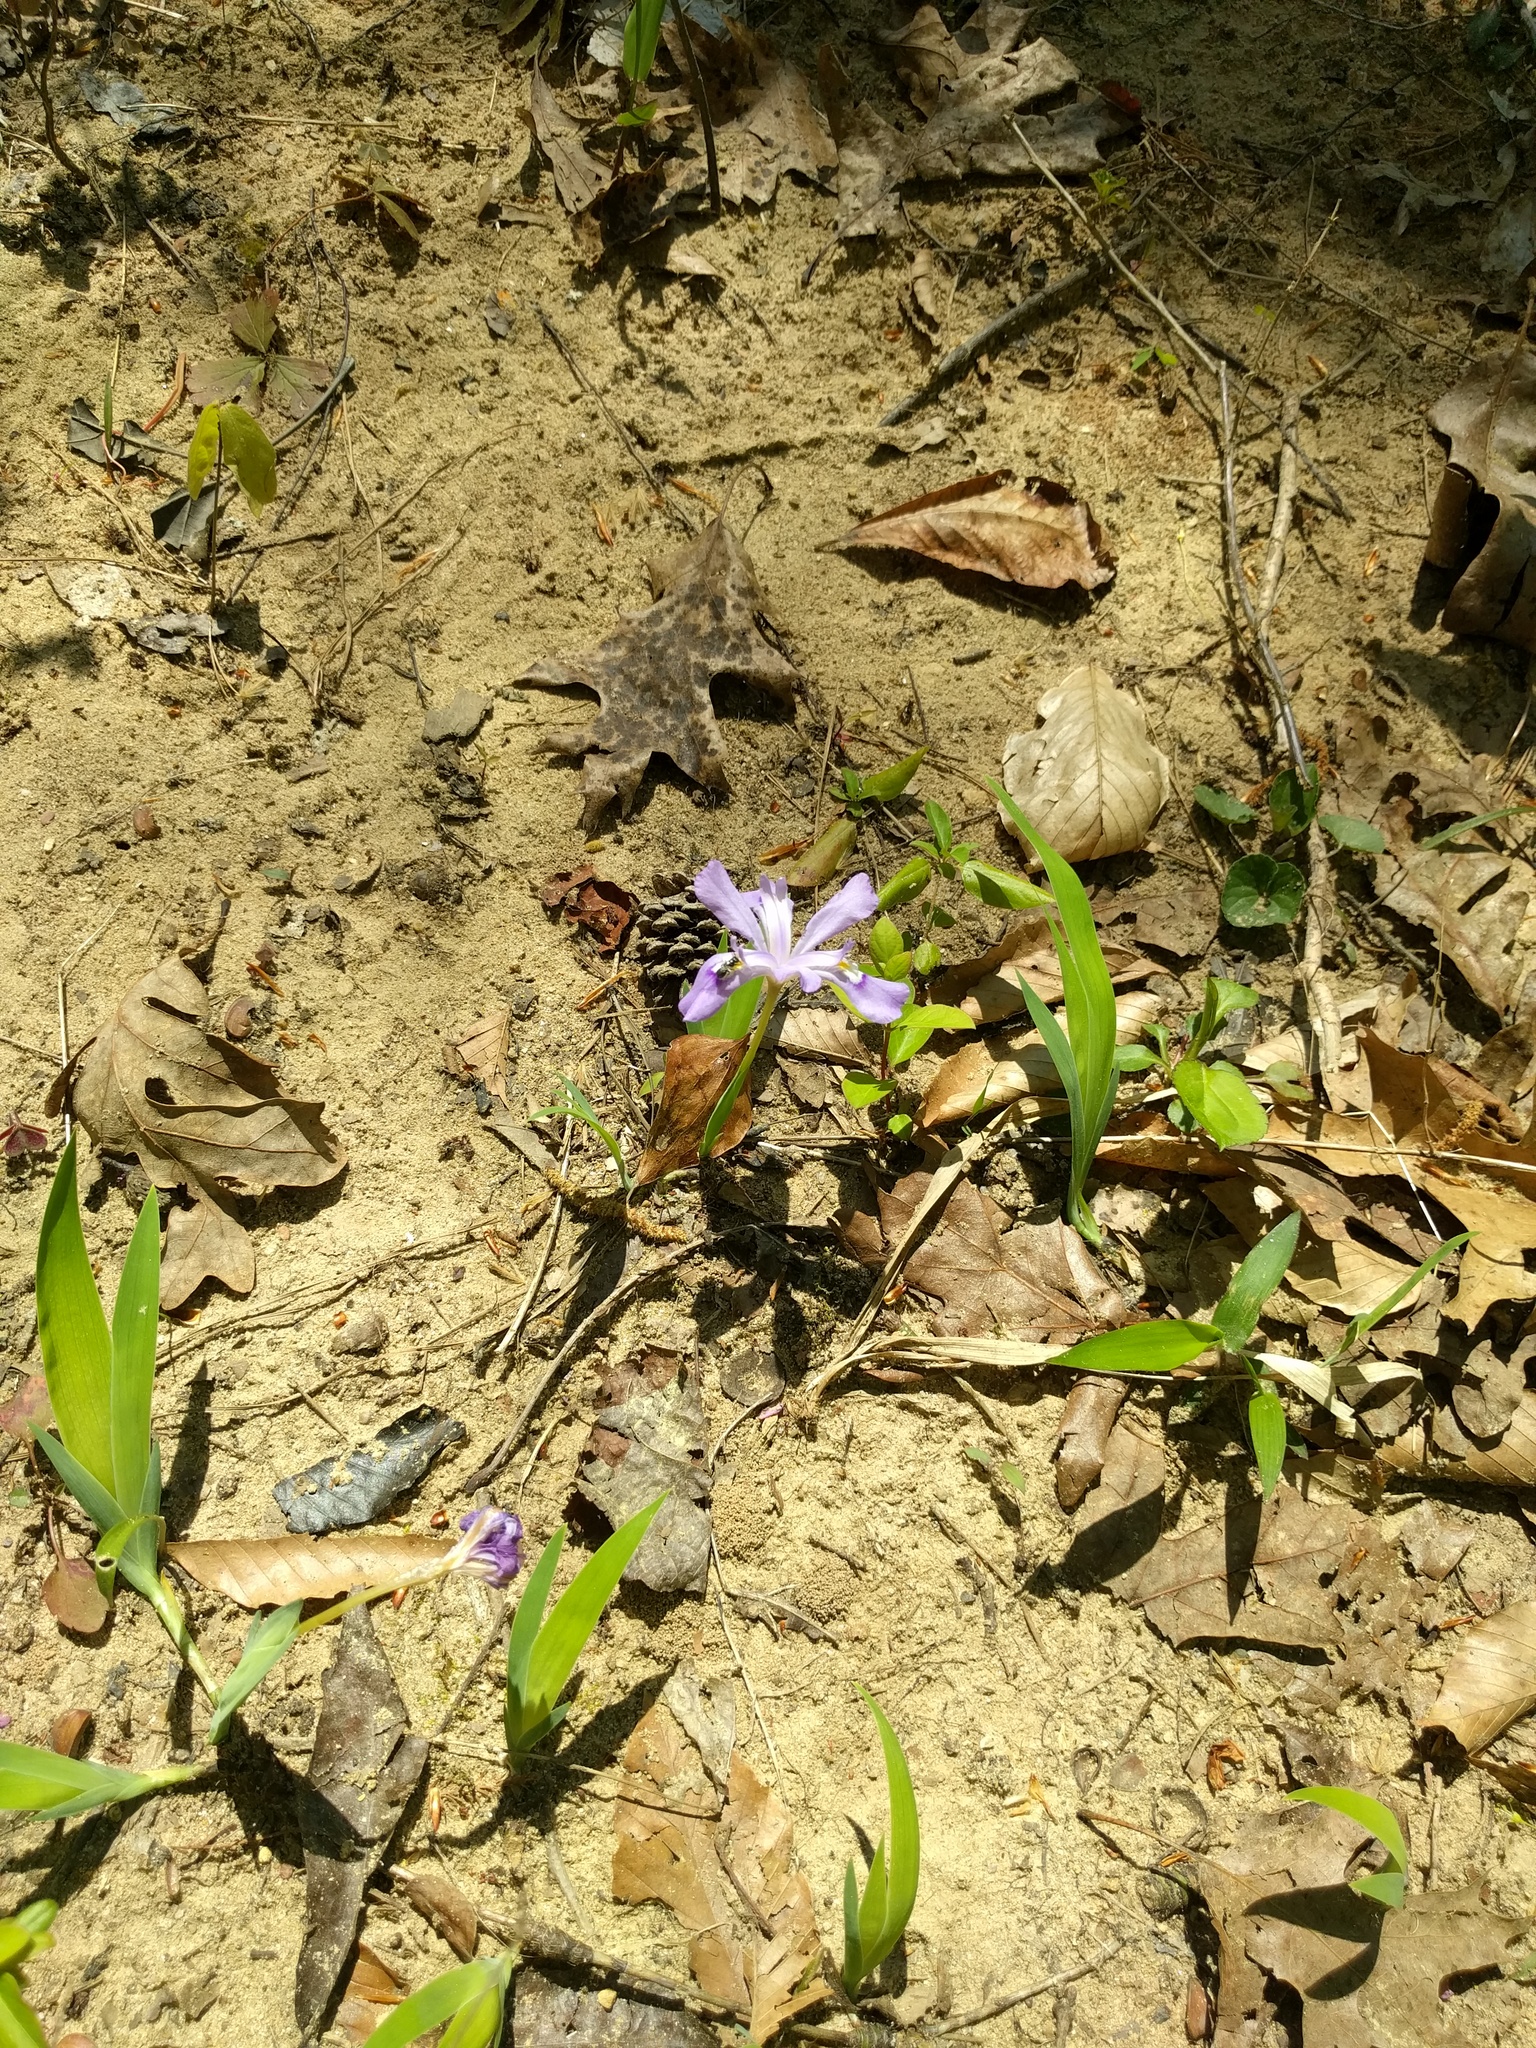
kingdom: Plantae
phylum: Tracheophyta
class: Liliopsida
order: Asparagales
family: Iridaceae
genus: Iris
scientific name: Iris cristata
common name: Crested iris
